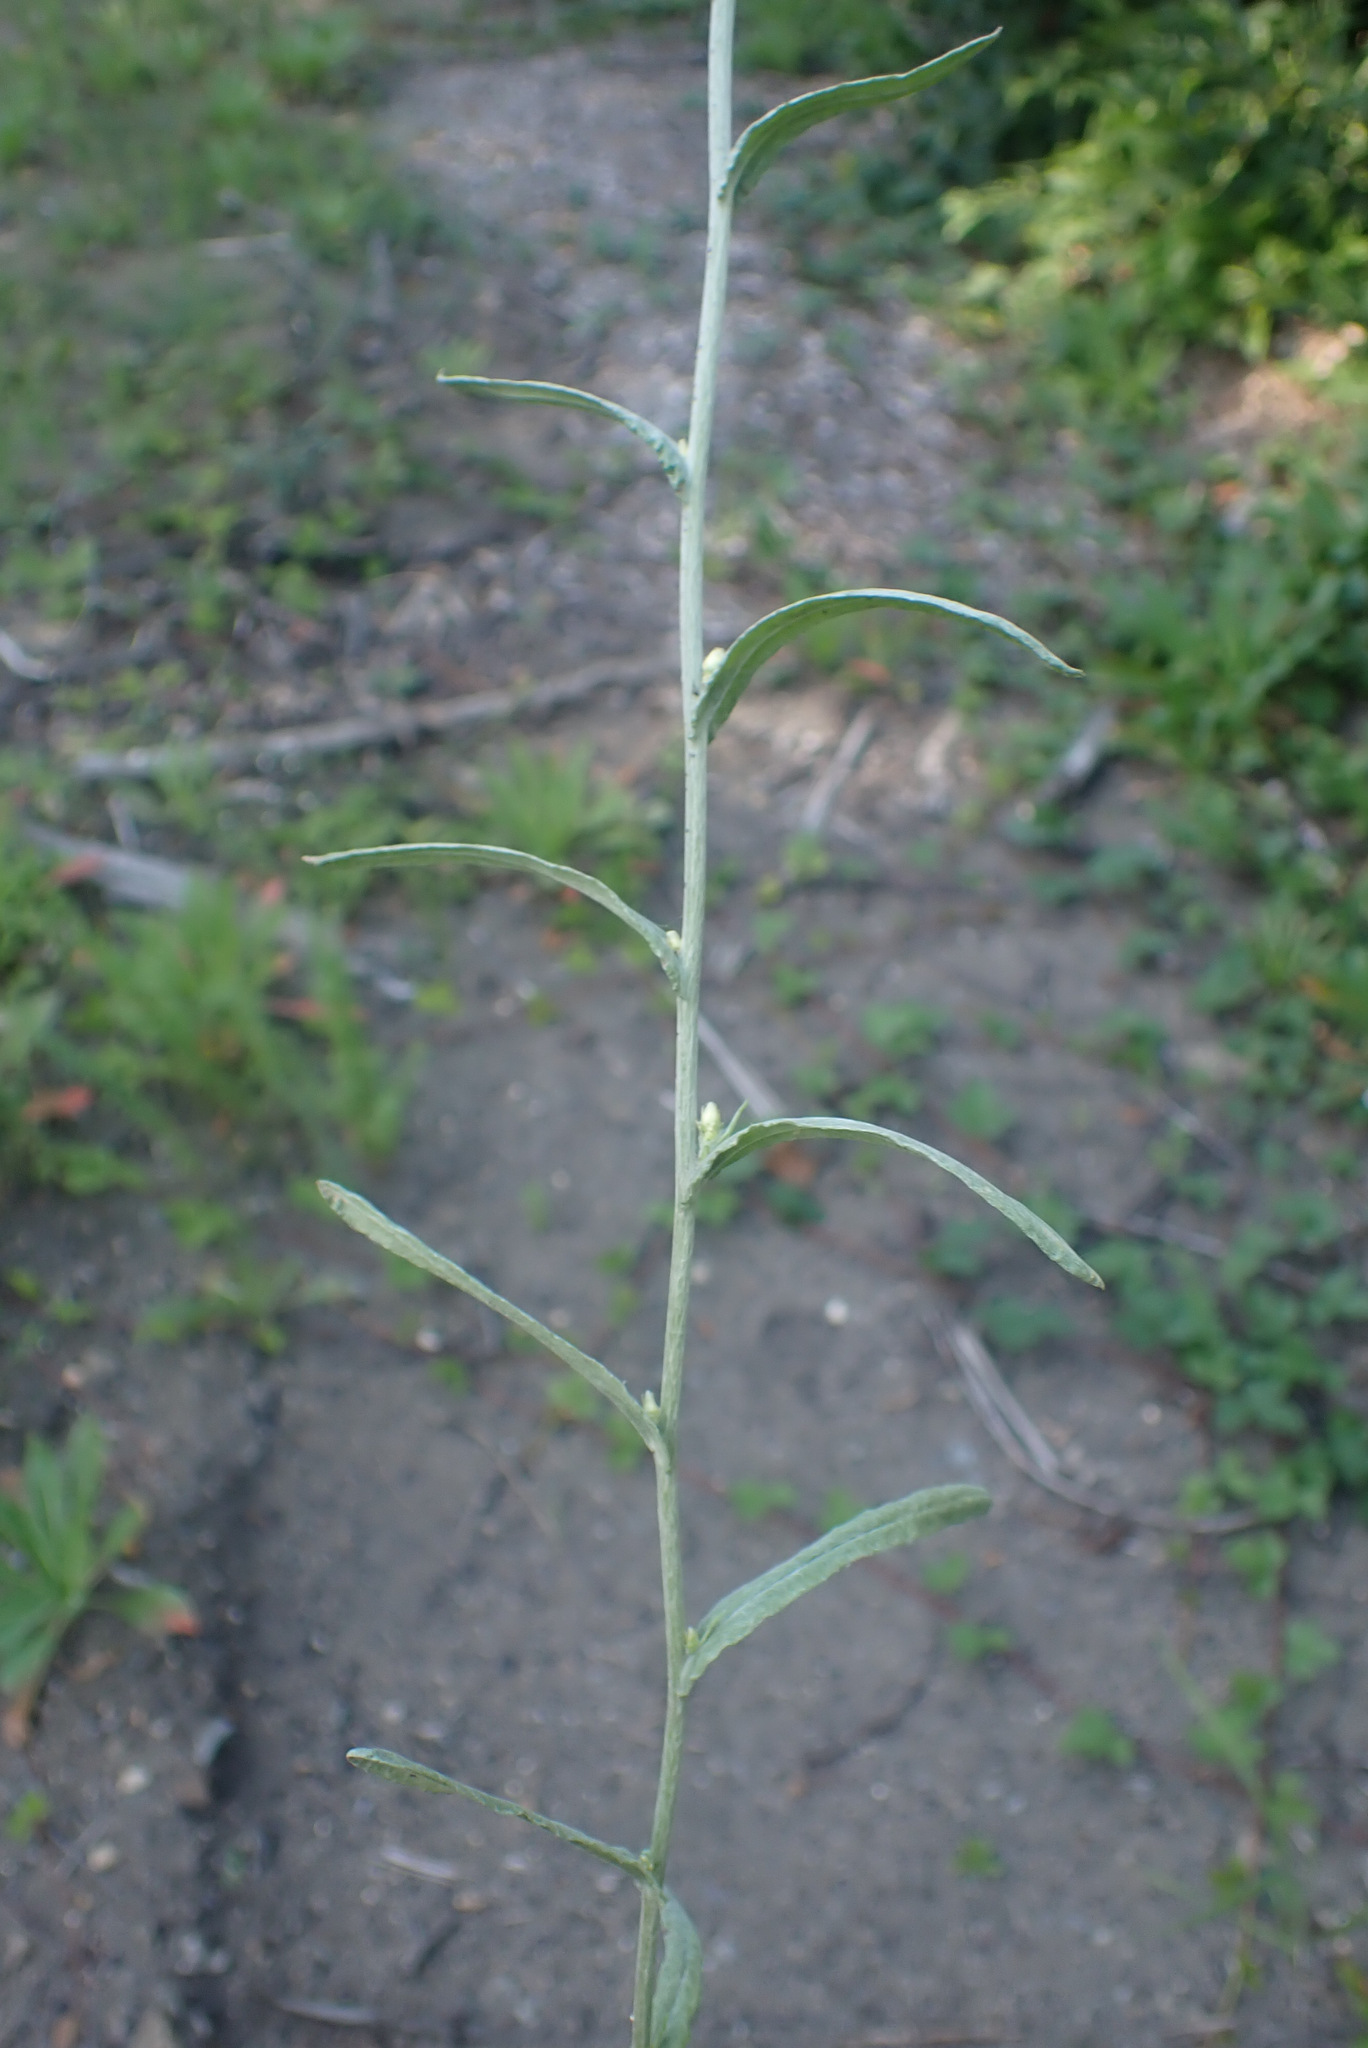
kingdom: Plantae
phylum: Tracheophyta
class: Magnoliopsida
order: Asterales
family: Asteraceae
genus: Helichrysum
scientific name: Helichrysum luteoalbum
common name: Daisy
